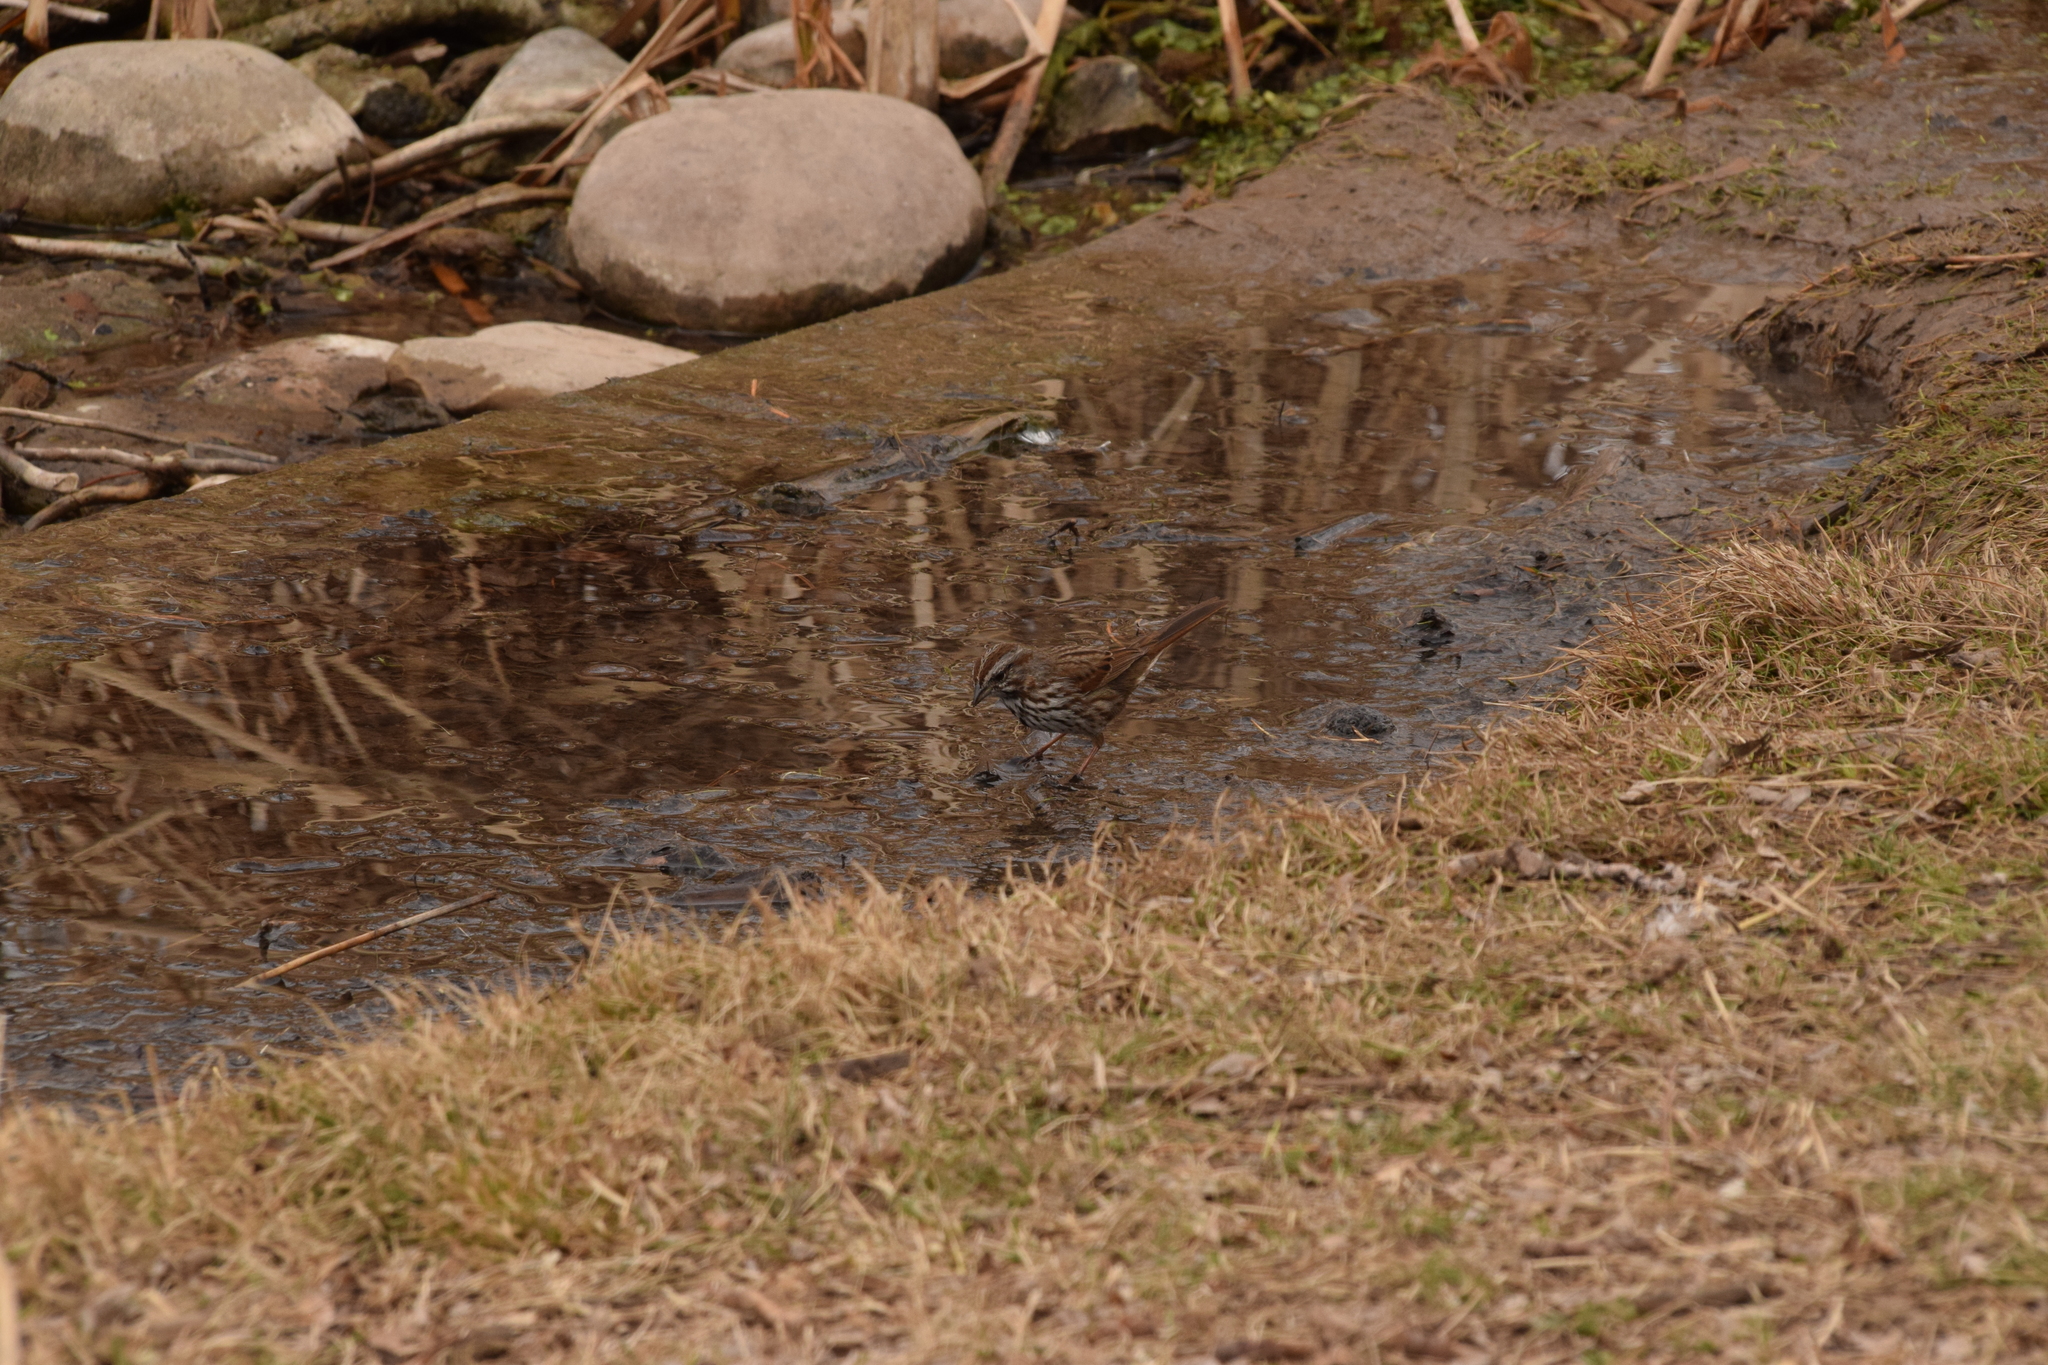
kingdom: Animalia
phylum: Chordata
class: Aves
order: Passeriformes
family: Passerellidae
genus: Melospiza
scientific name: Melospiza melodia
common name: Song sparrow
